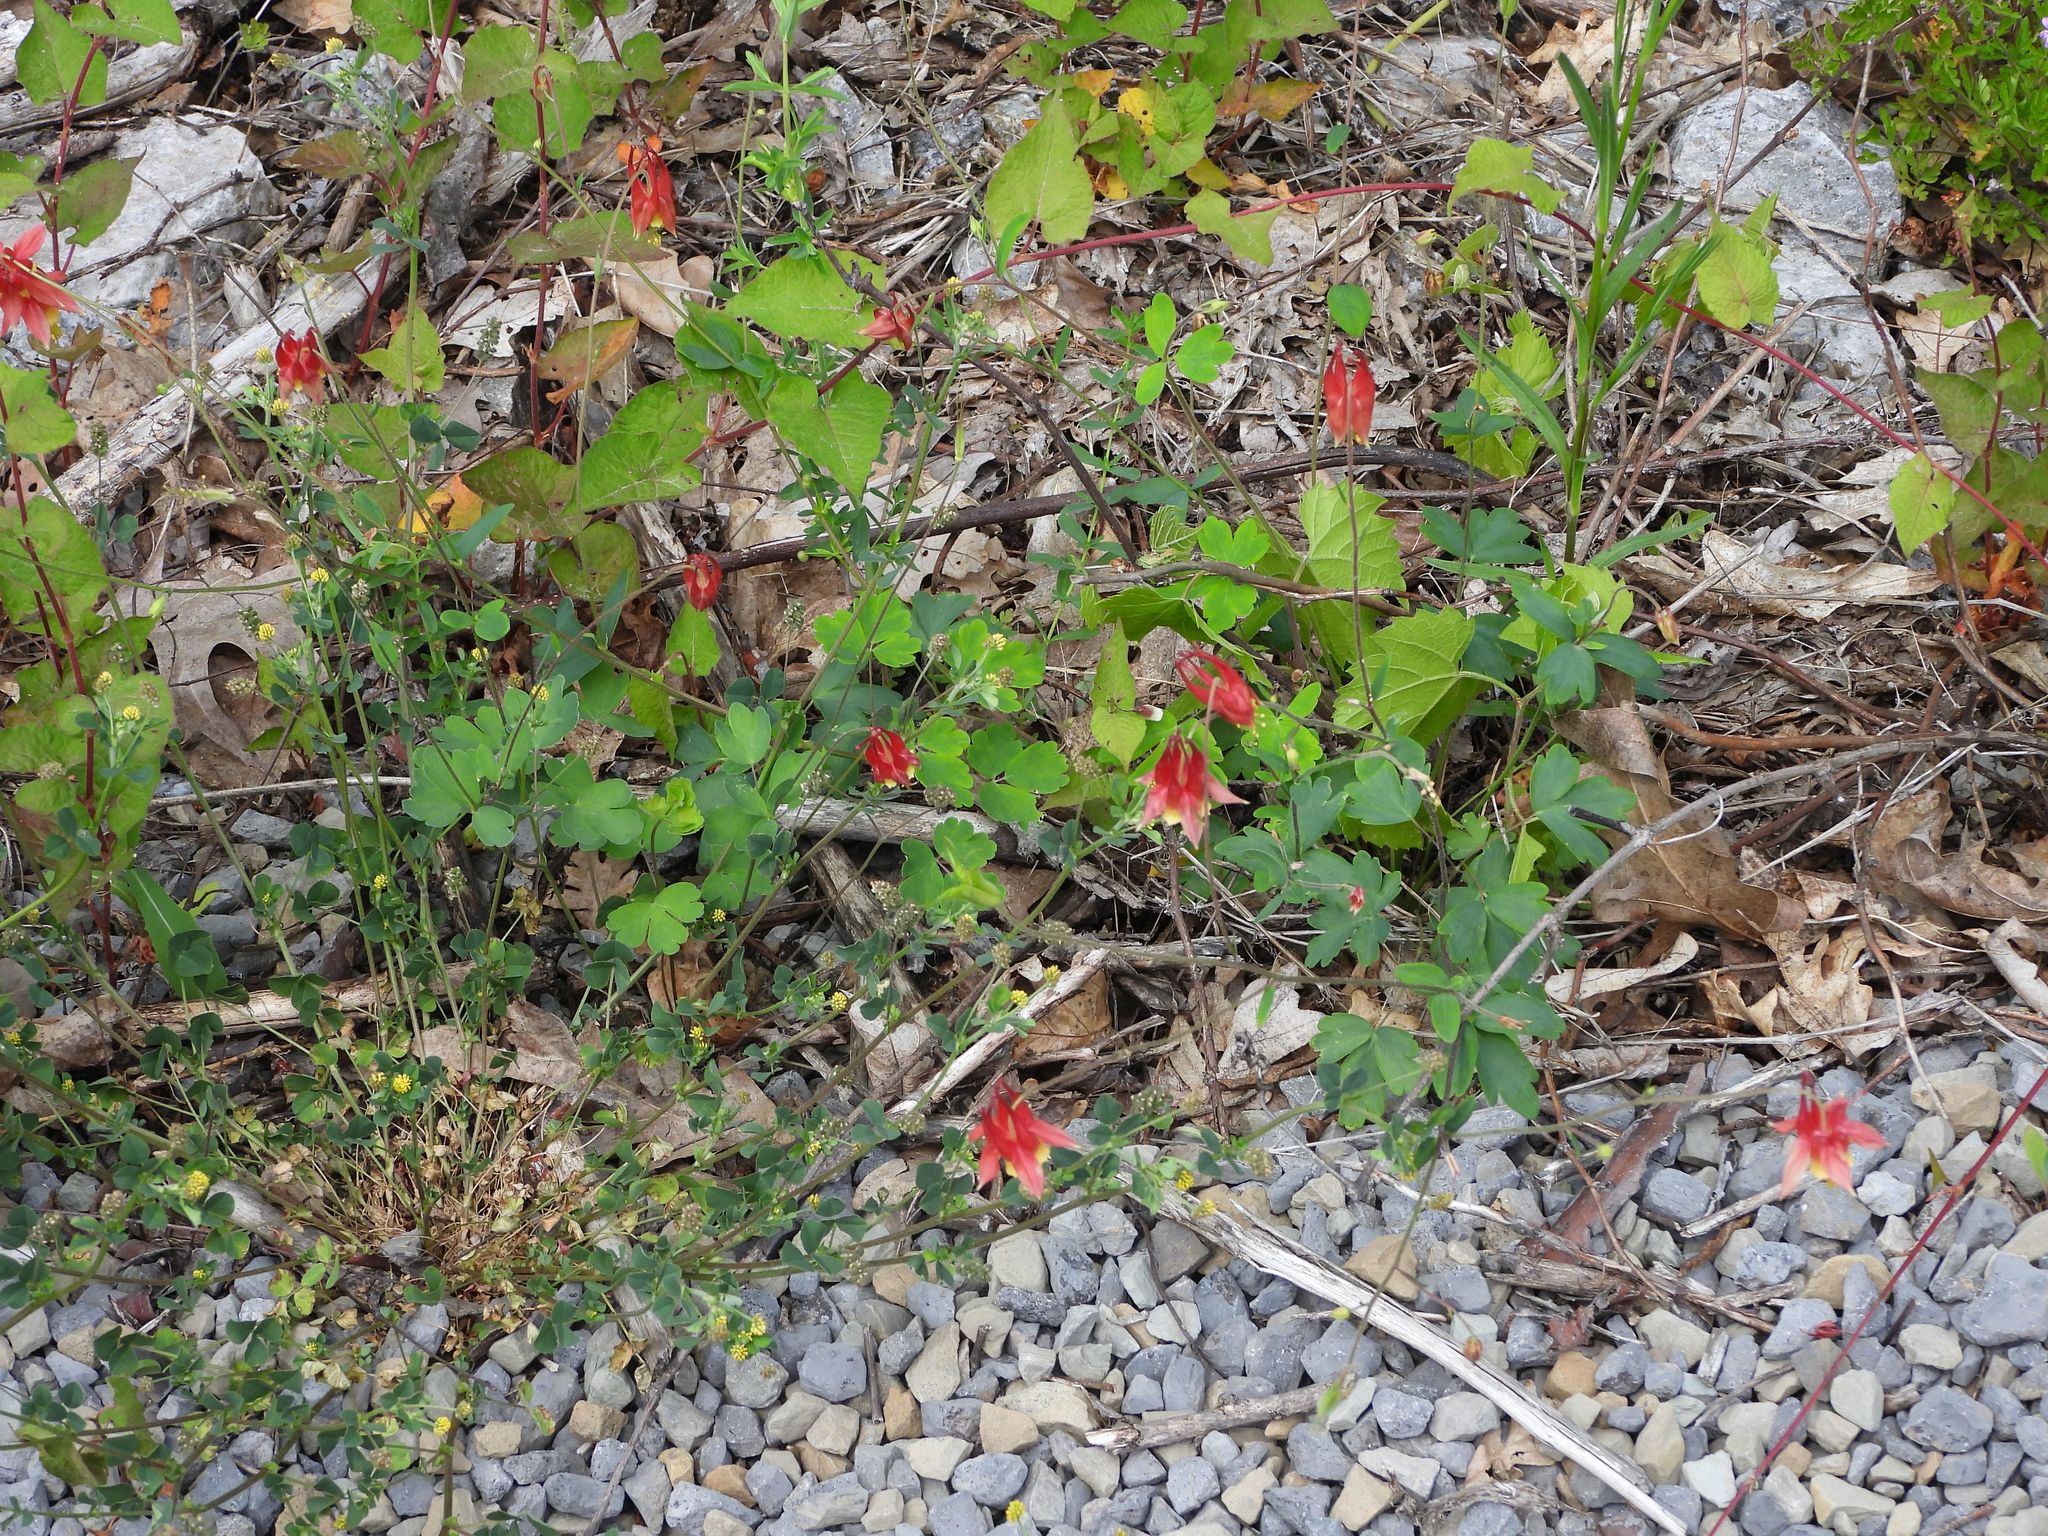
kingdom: Plantae
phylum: Tracheophyta
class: Magnoliopsida
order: Ranunculales
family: Ranunculaceae
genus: Aquilegia
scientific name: Aquilegia canadensis
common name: American columbine
